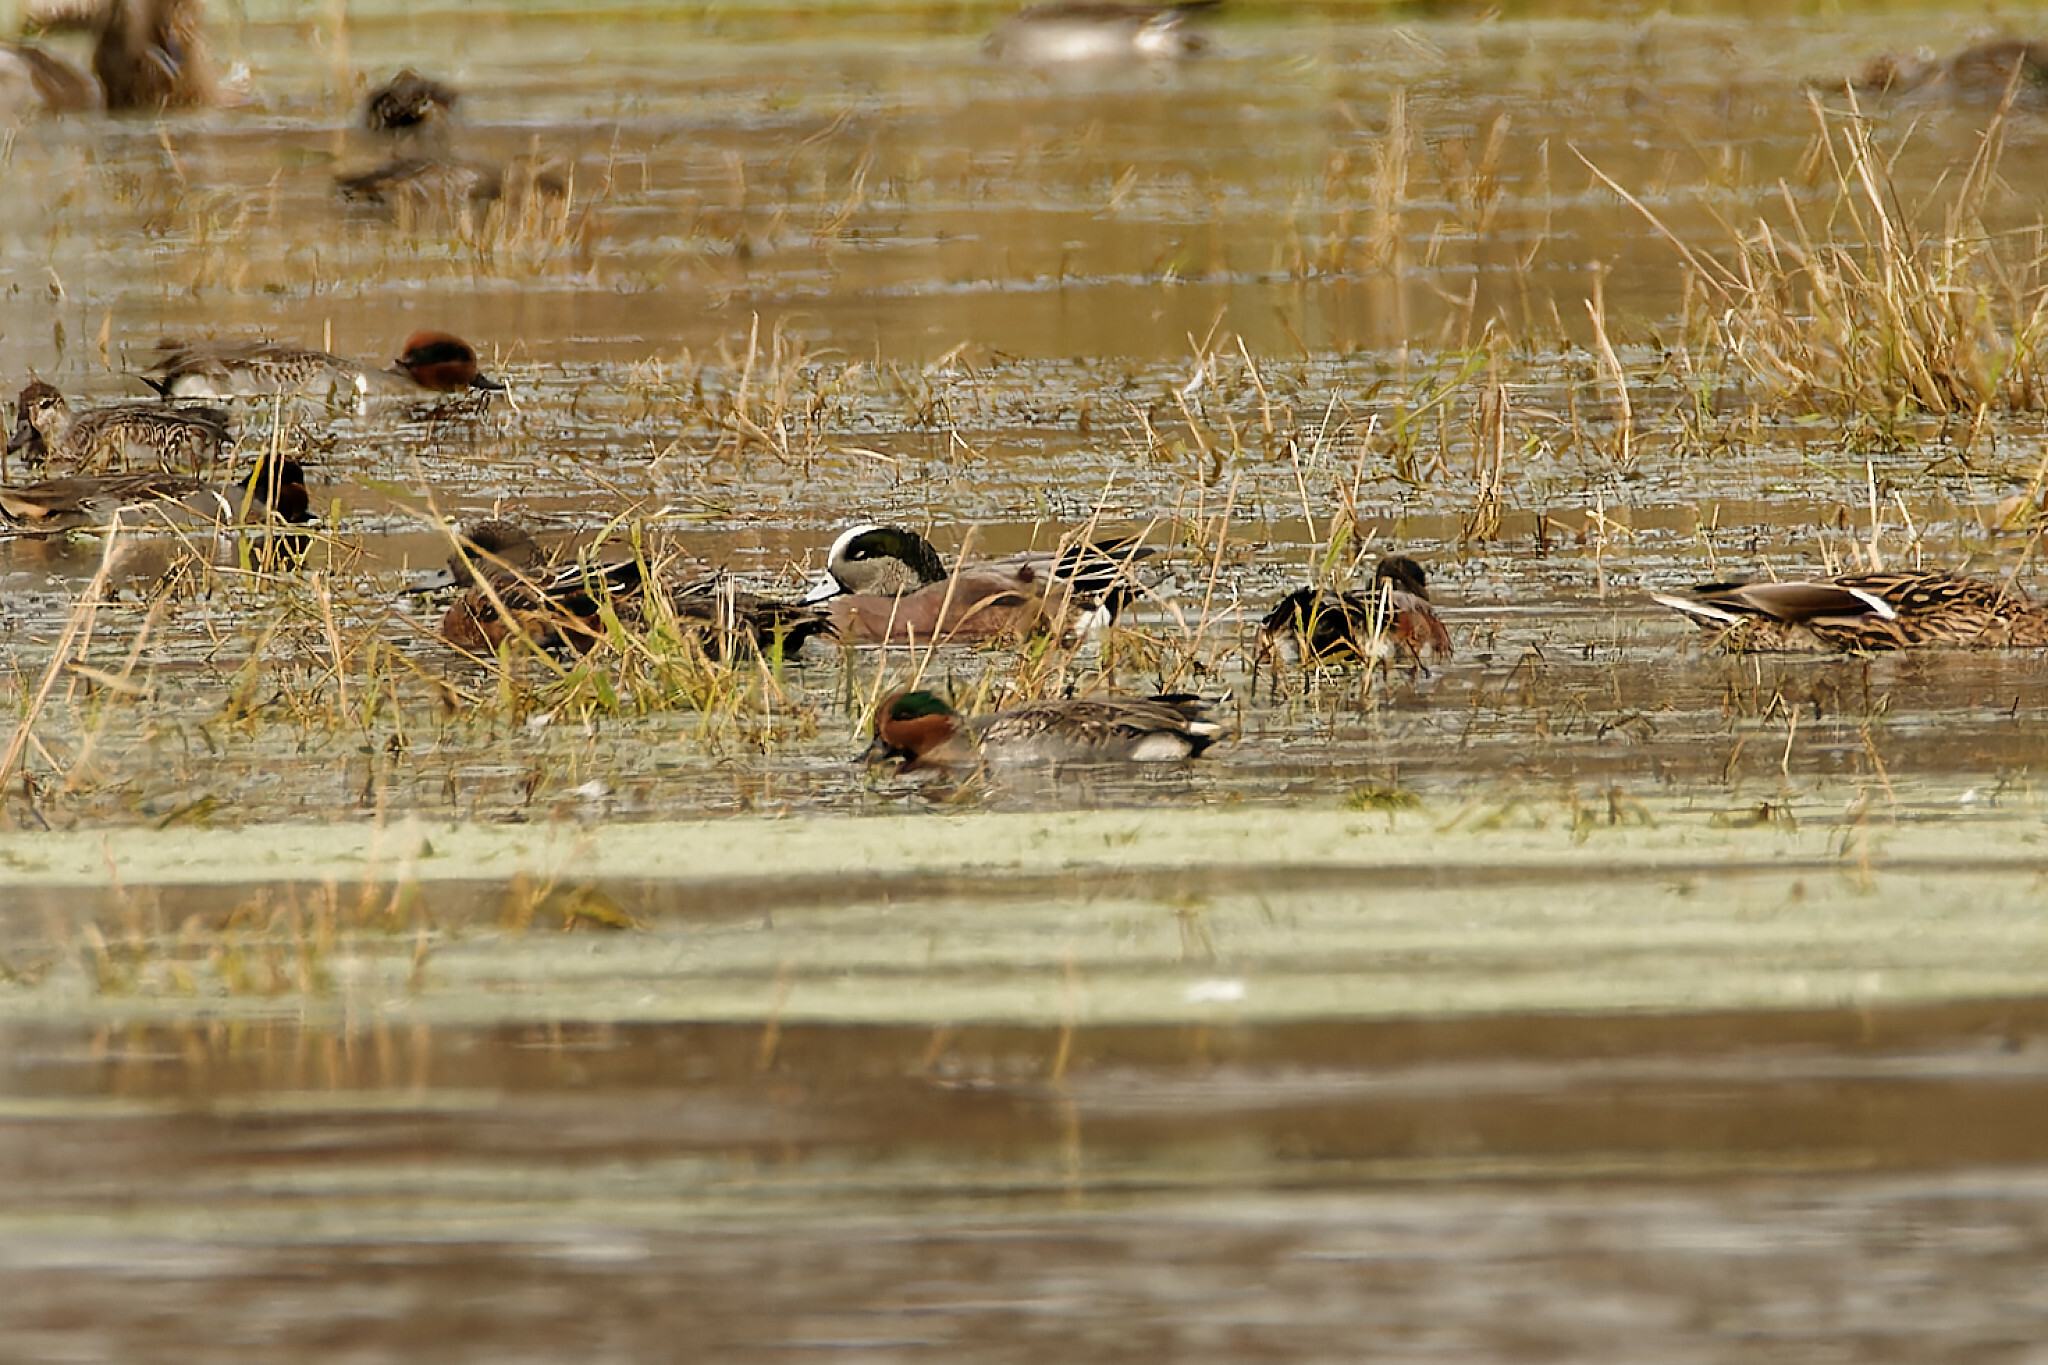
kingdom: Animalia
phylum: Chordata
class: Aves
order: Anseriformes
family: Anatidae
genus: Mareca
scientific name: Mareca americana
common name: American wigeon
